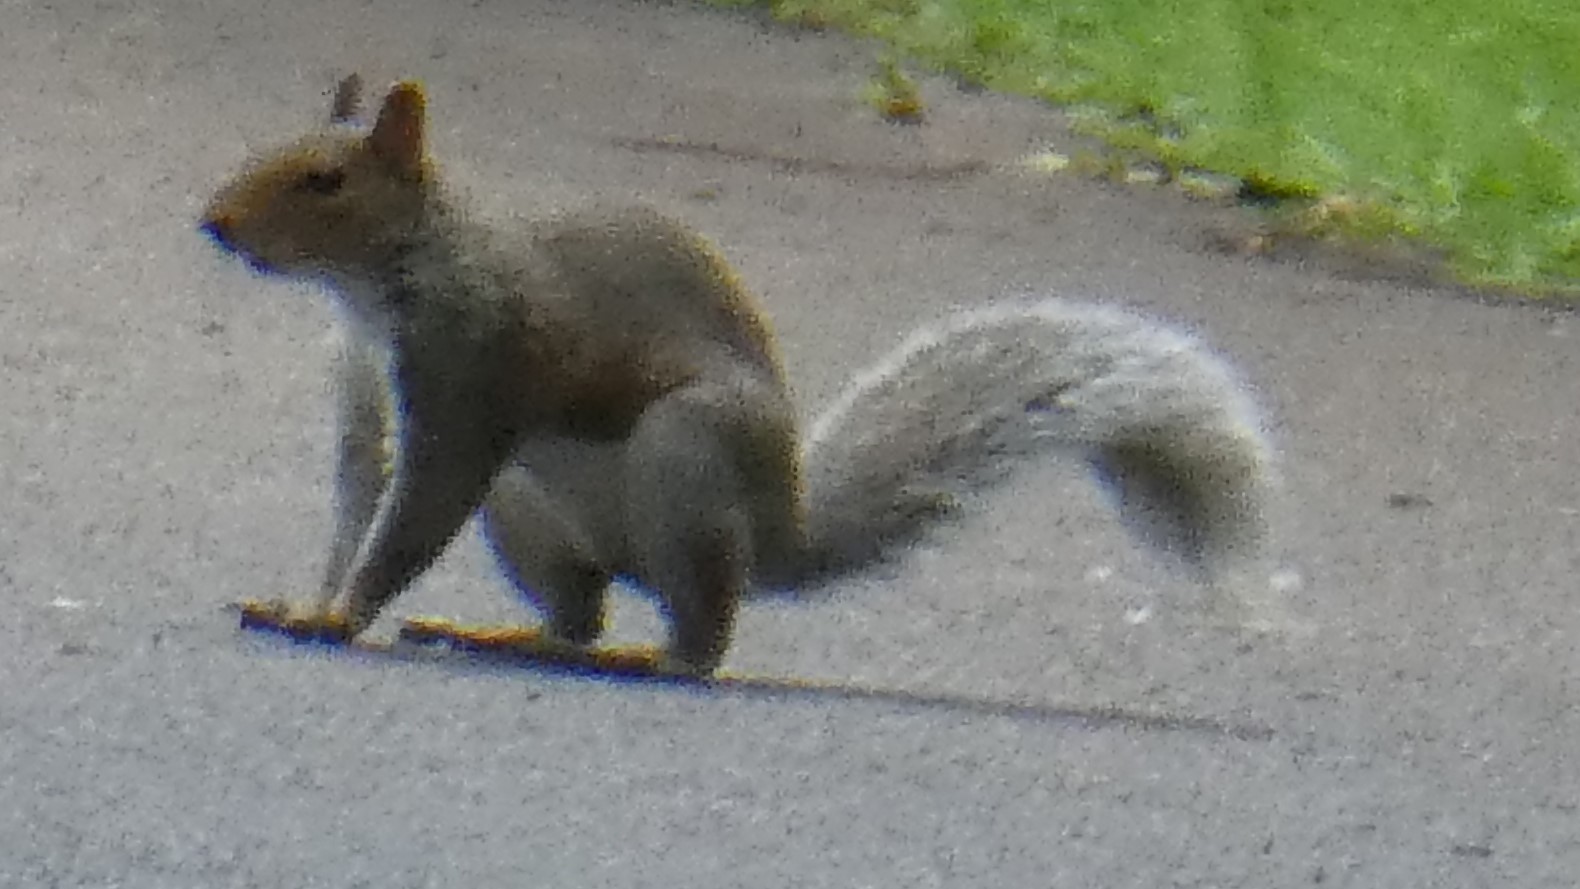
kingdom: Animalia
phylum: Chordata
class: Mammalia
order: Rodentia
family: Sciuridae
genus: Sciurus
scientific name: Sciurus carolinensis
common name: Eastern gray squirrel
